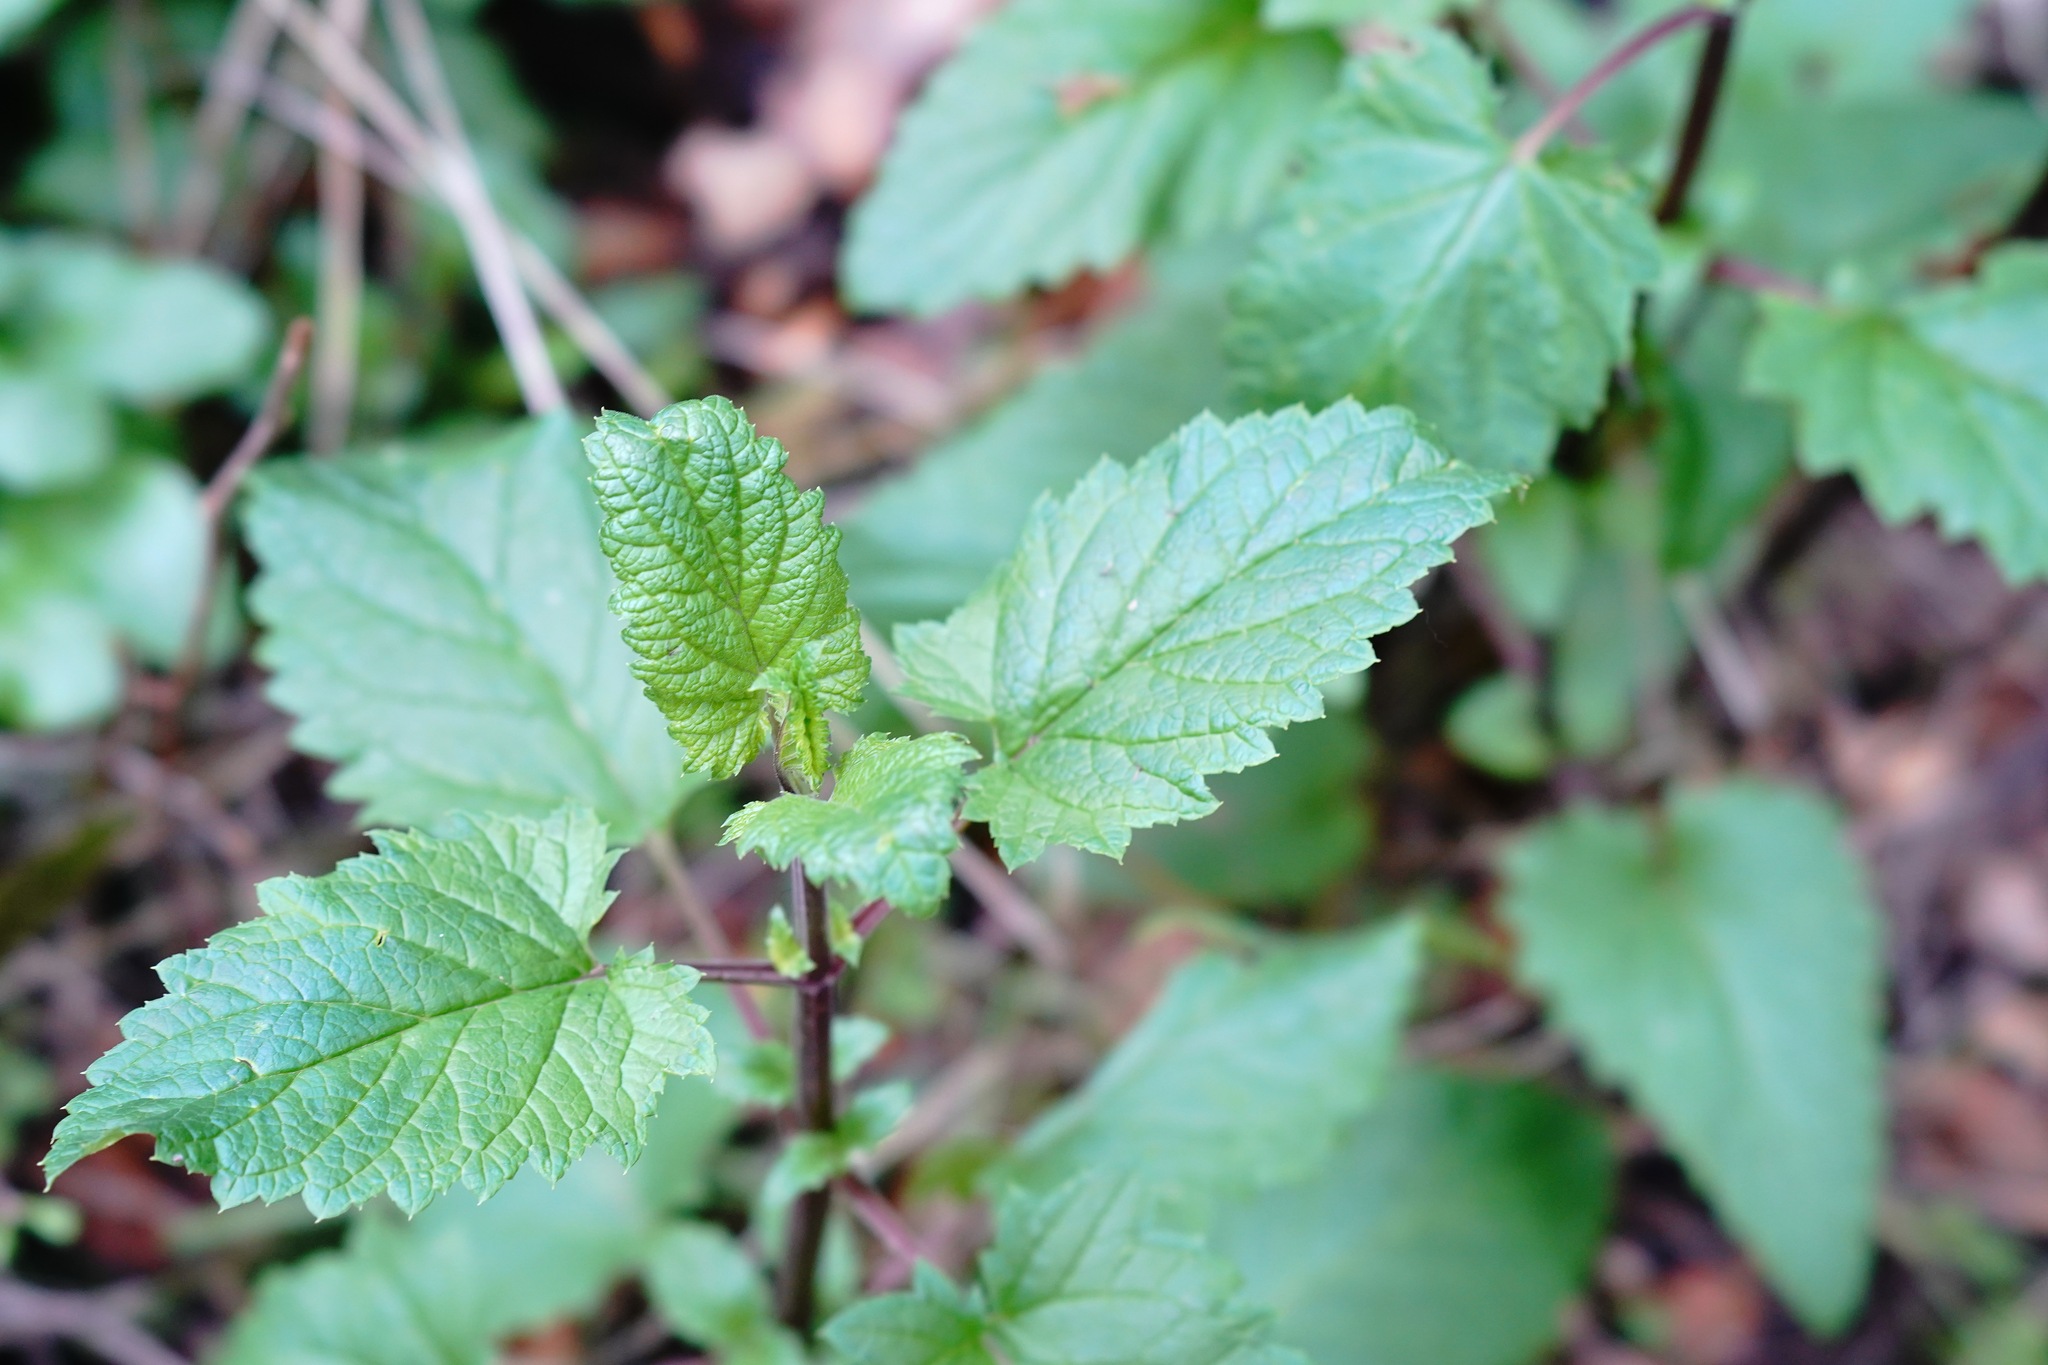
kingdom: Plantae
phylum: Tracheophyta
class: Magnoliopsida
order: Lamiales
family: Scrophulariaceae
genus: Scrophularia
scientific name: Scrophularia californica
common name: California figwort
